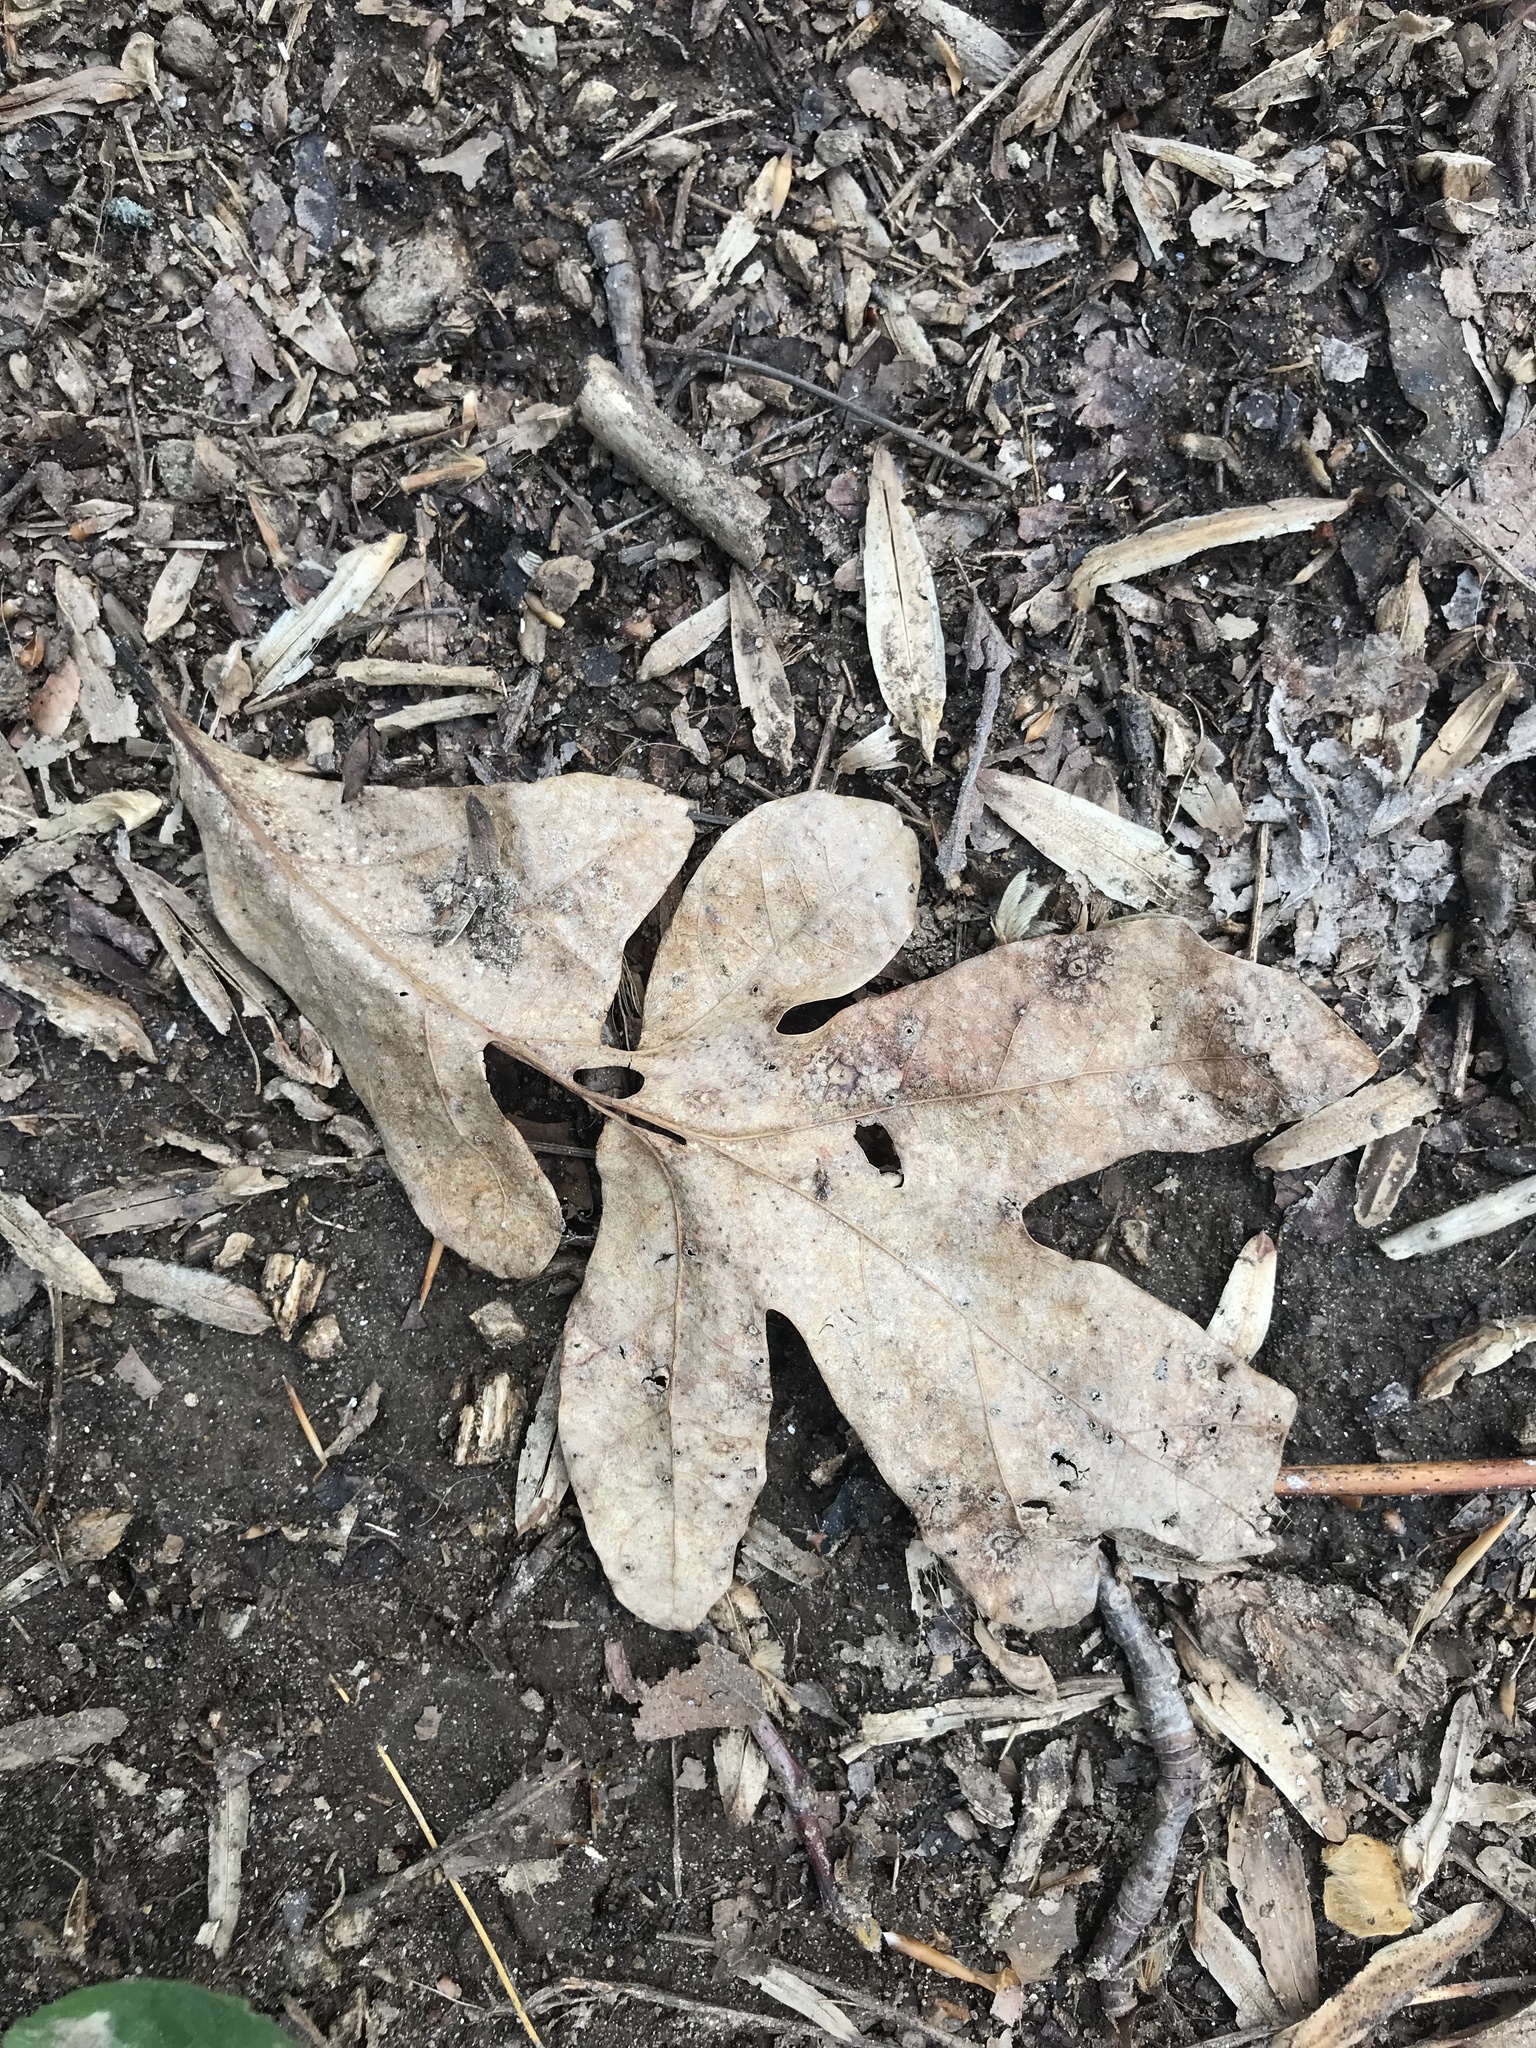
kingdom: Plantae
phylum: Tracheophyta
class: Magnoliopsida
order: Fagales
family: Fagaceae
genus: Quercus
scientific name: Quercus alba
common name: White oak
